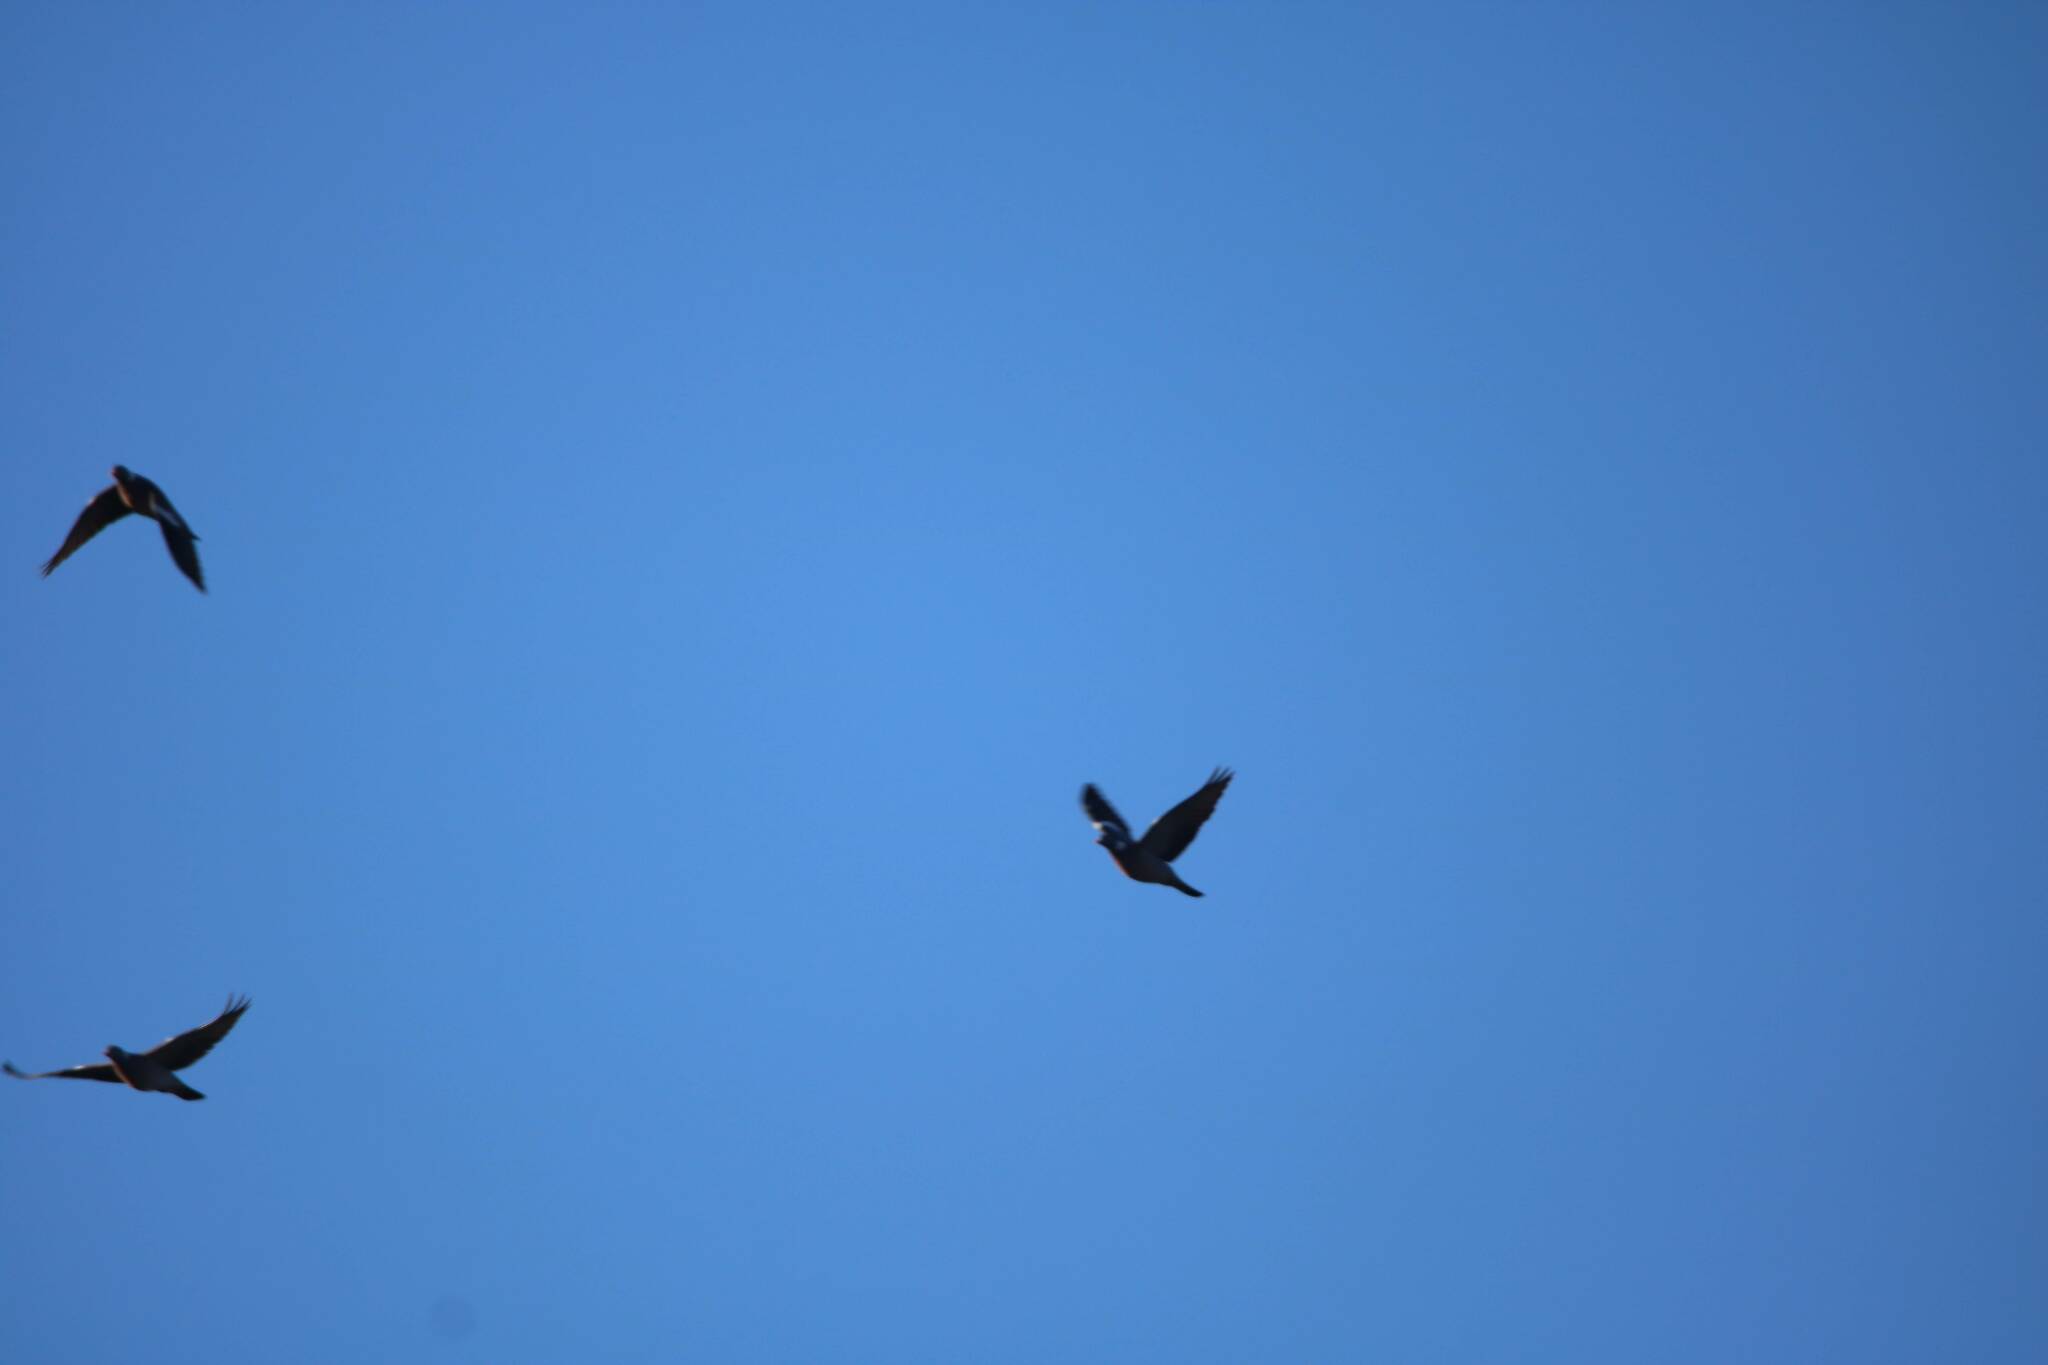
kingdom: Animalia
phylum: Chordata
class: Aves
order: Columbiformes
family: Columbidae
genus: Columba
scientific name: Columba palumbus
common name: Common wood pigeon
